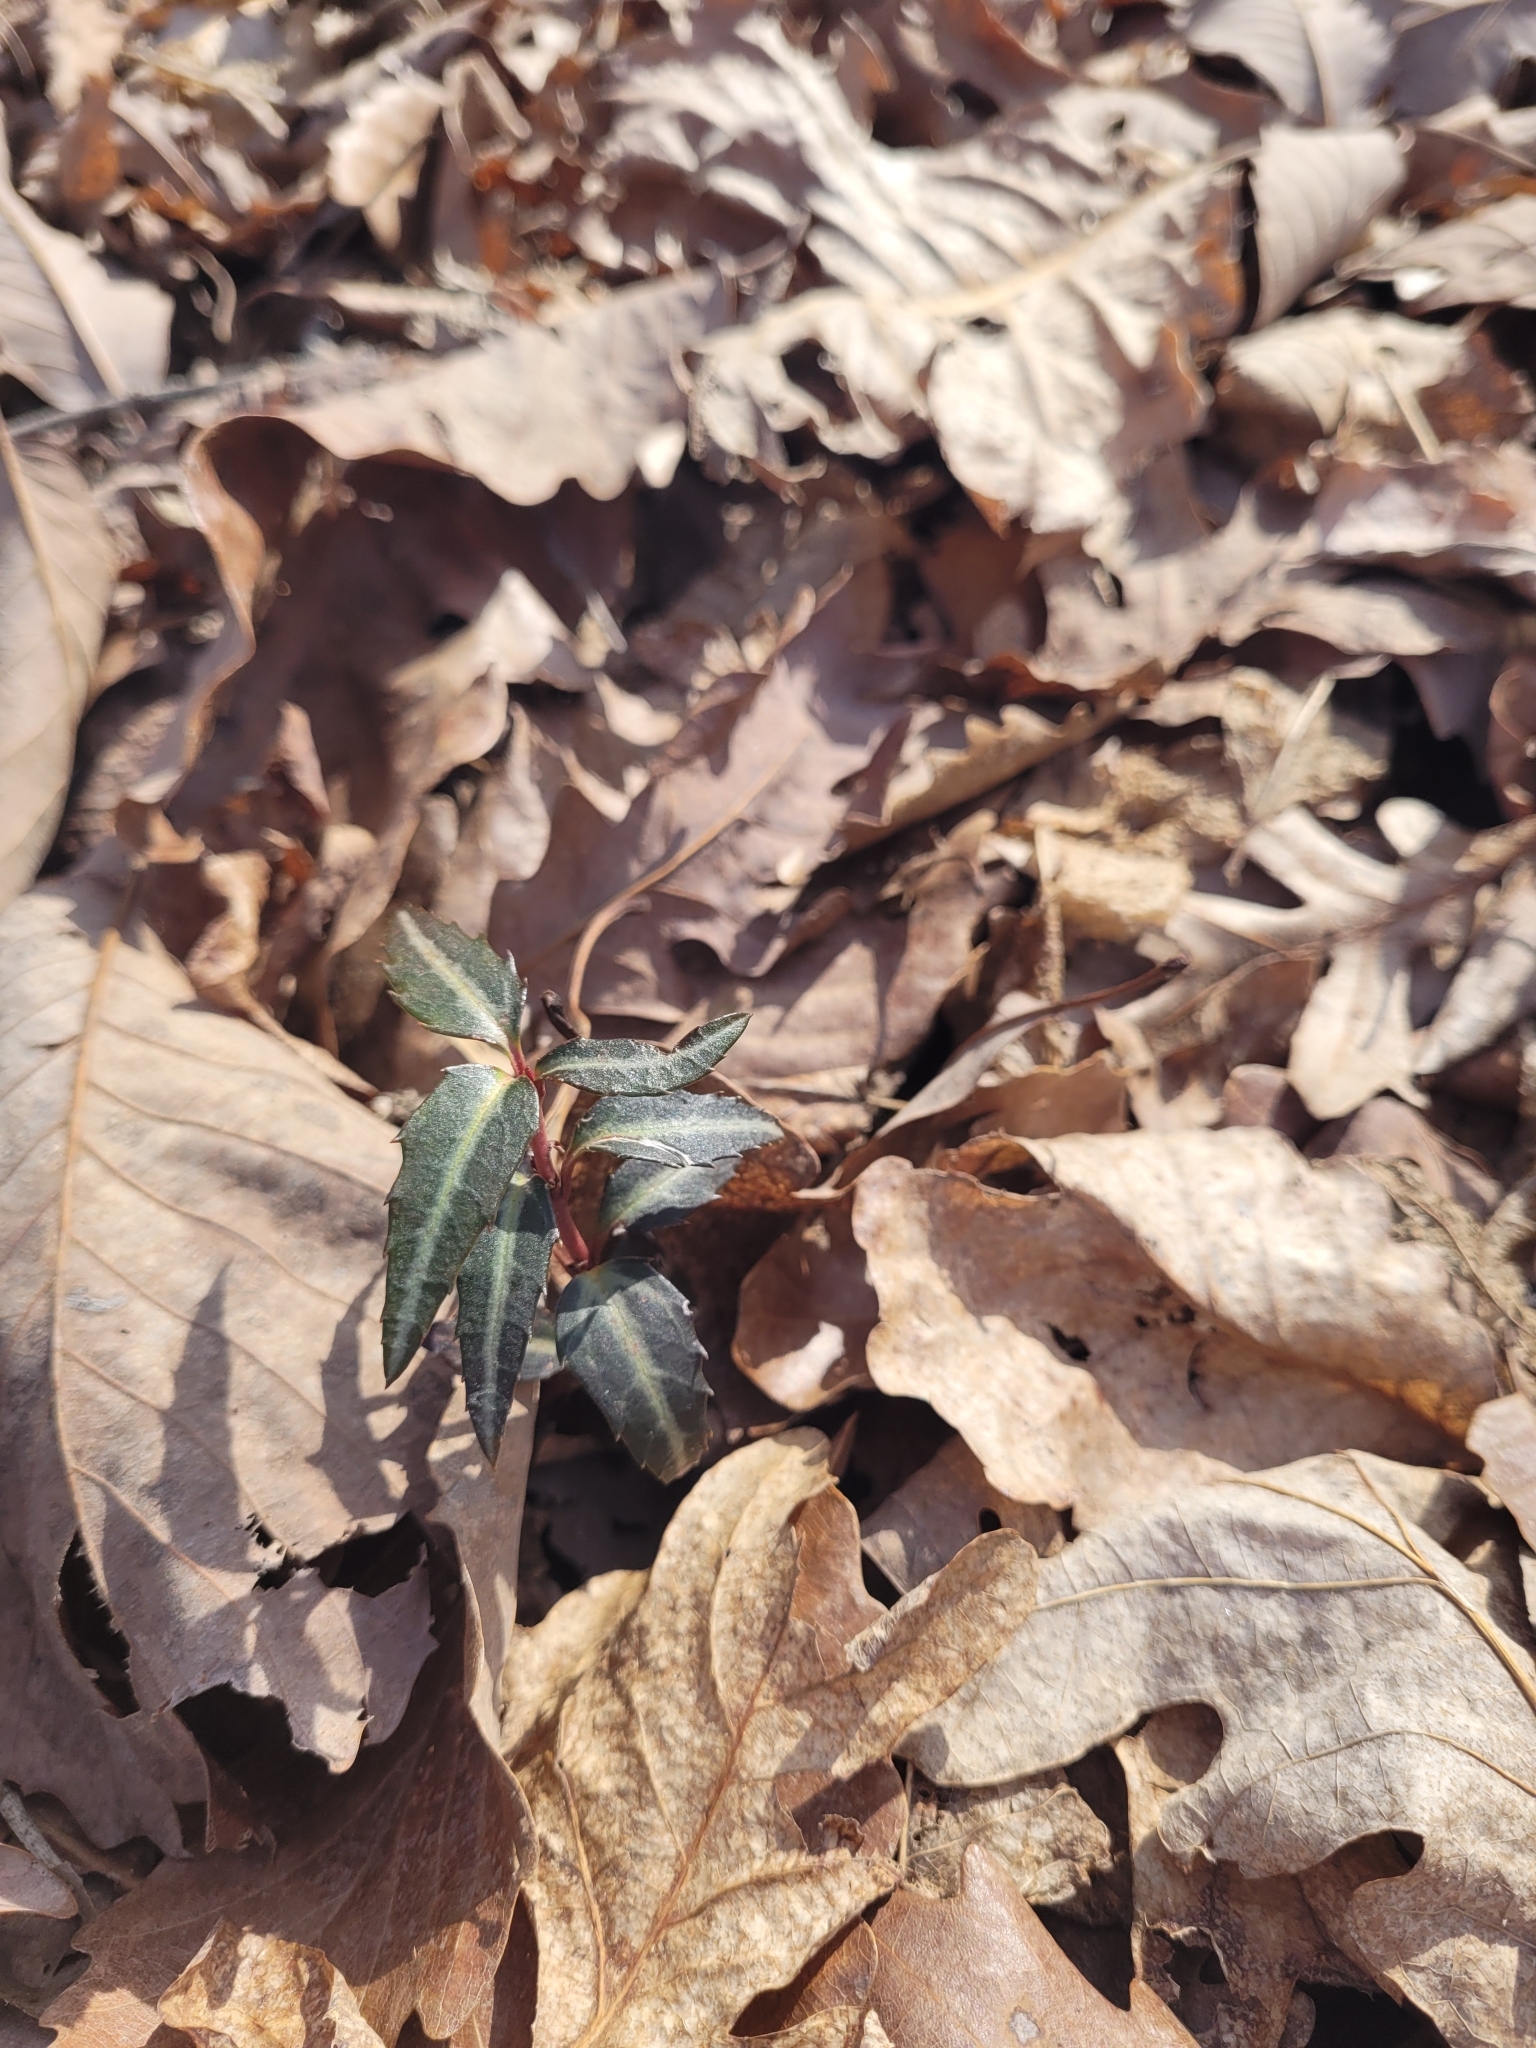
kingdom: Plantae
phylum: Tracheophyta
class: Magnoliopsida
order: Ericales
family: Ericaceae
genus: Chimaphila
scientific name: Chimaphila maculata
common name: Spotted pipsissewa
